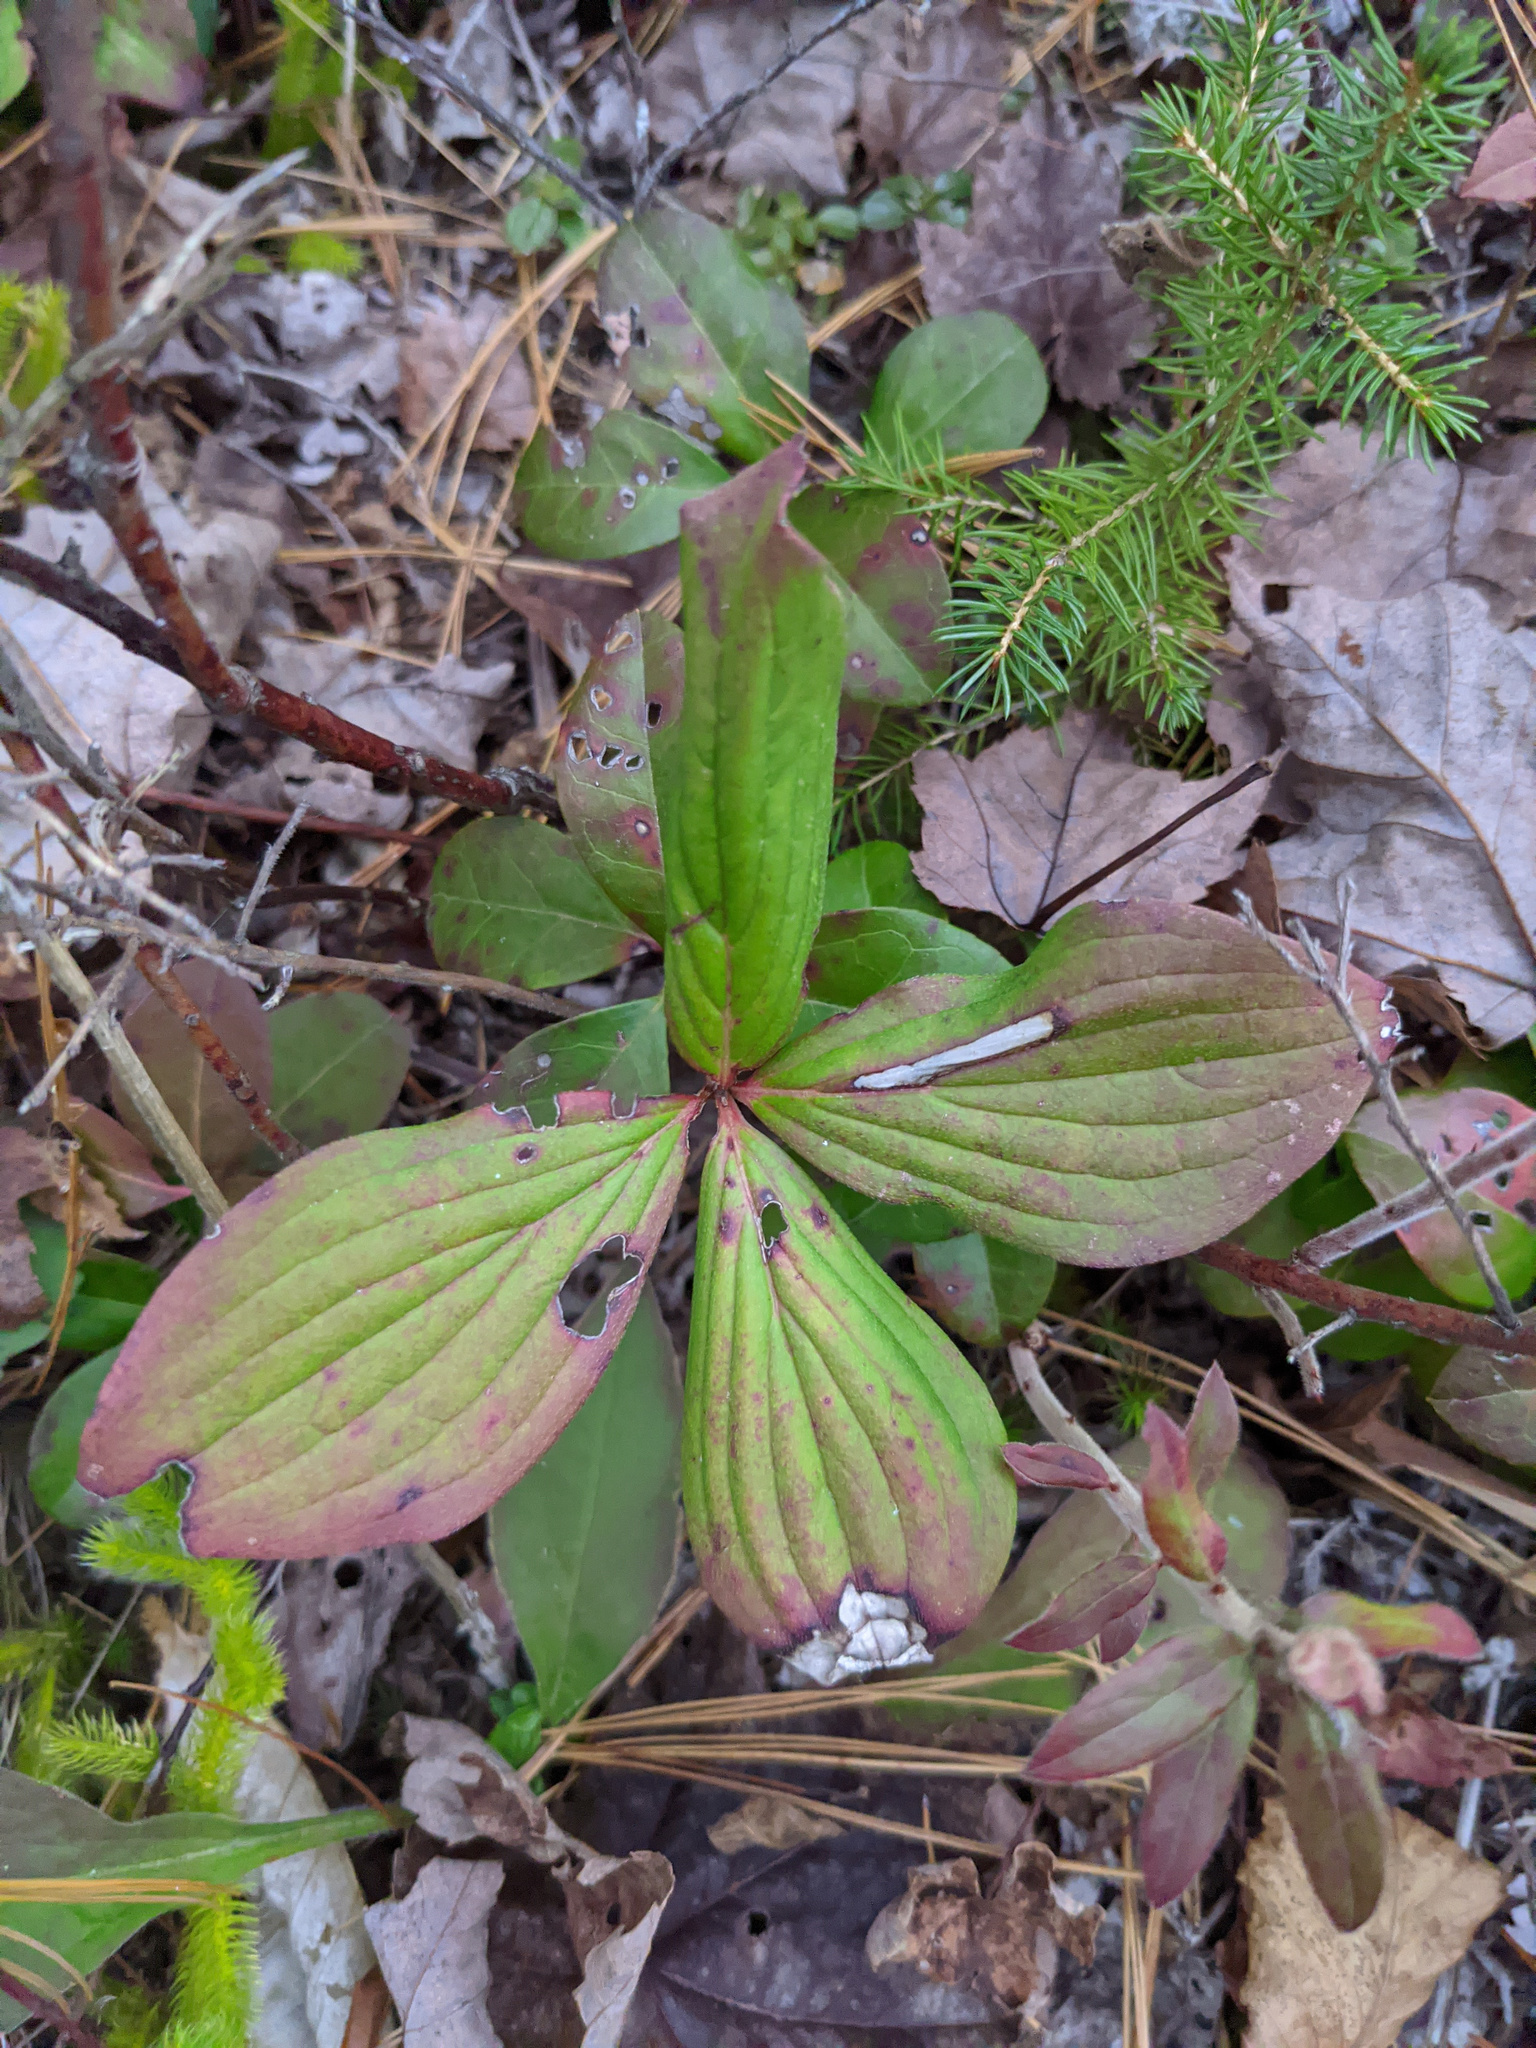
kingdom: Plantae
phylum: Tracheophyta
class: Magnoliopsida
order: Cornales
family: Cornaceae
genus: Cornus
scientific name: Cornus canadensis
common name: Creeping dogwood
